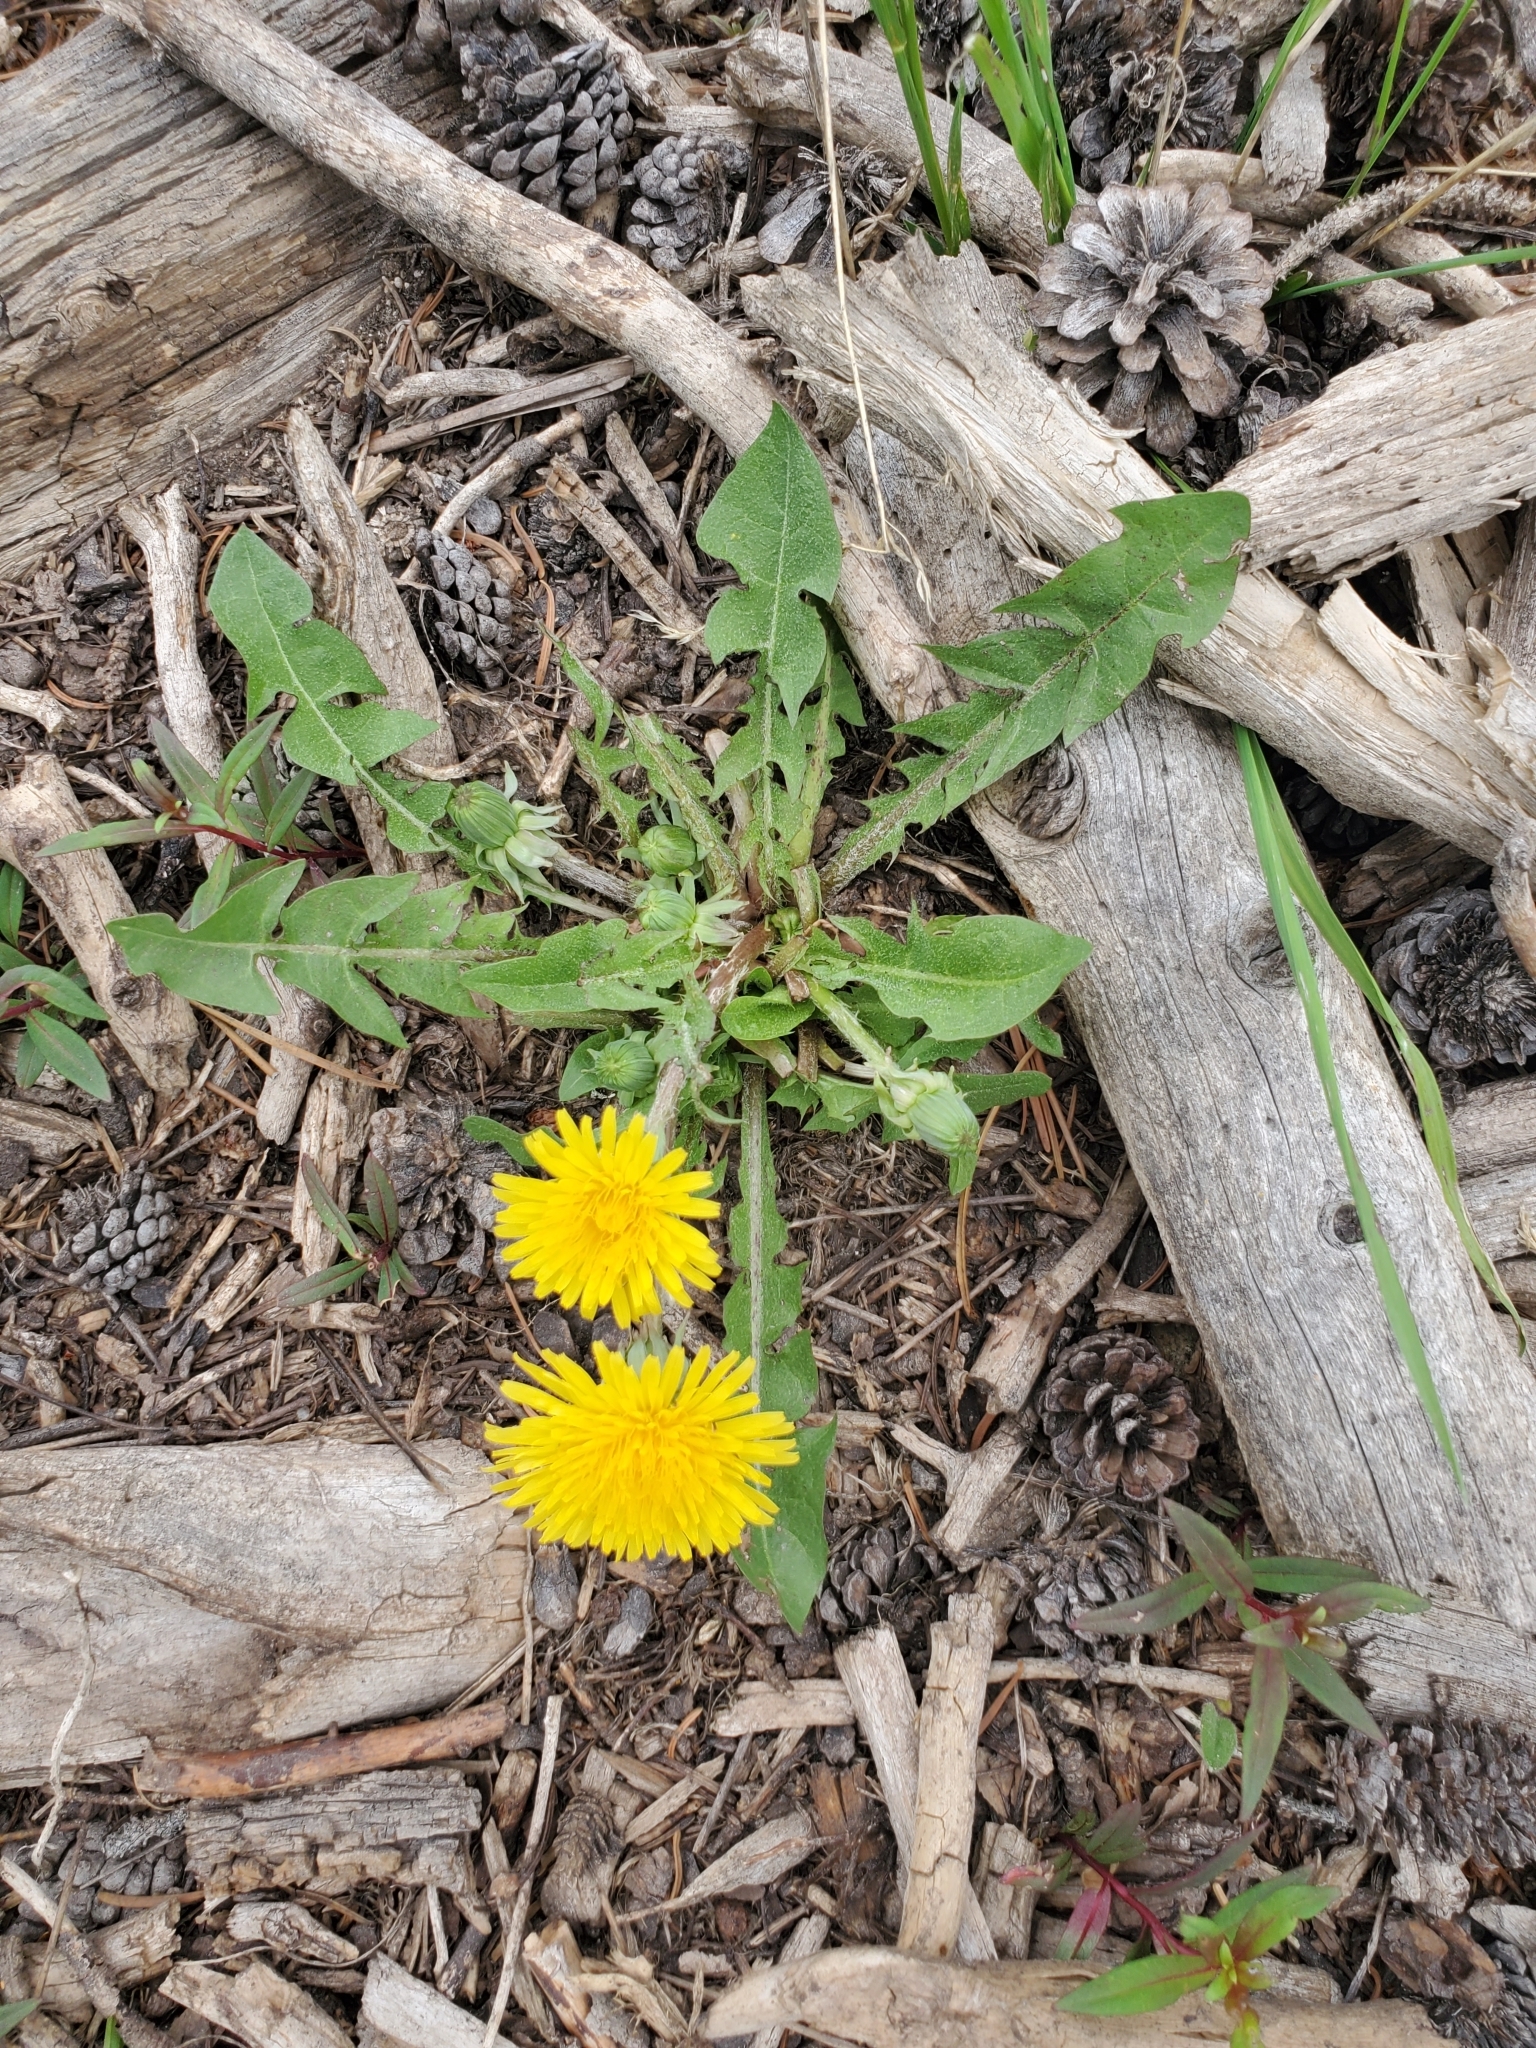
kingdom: Plantae
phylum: Tracheophyta
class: Magnoliopsida
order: Asterales
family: Asteraceae
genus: Taraxacum
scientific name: Taraxacum officinale
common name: Common dandelion
